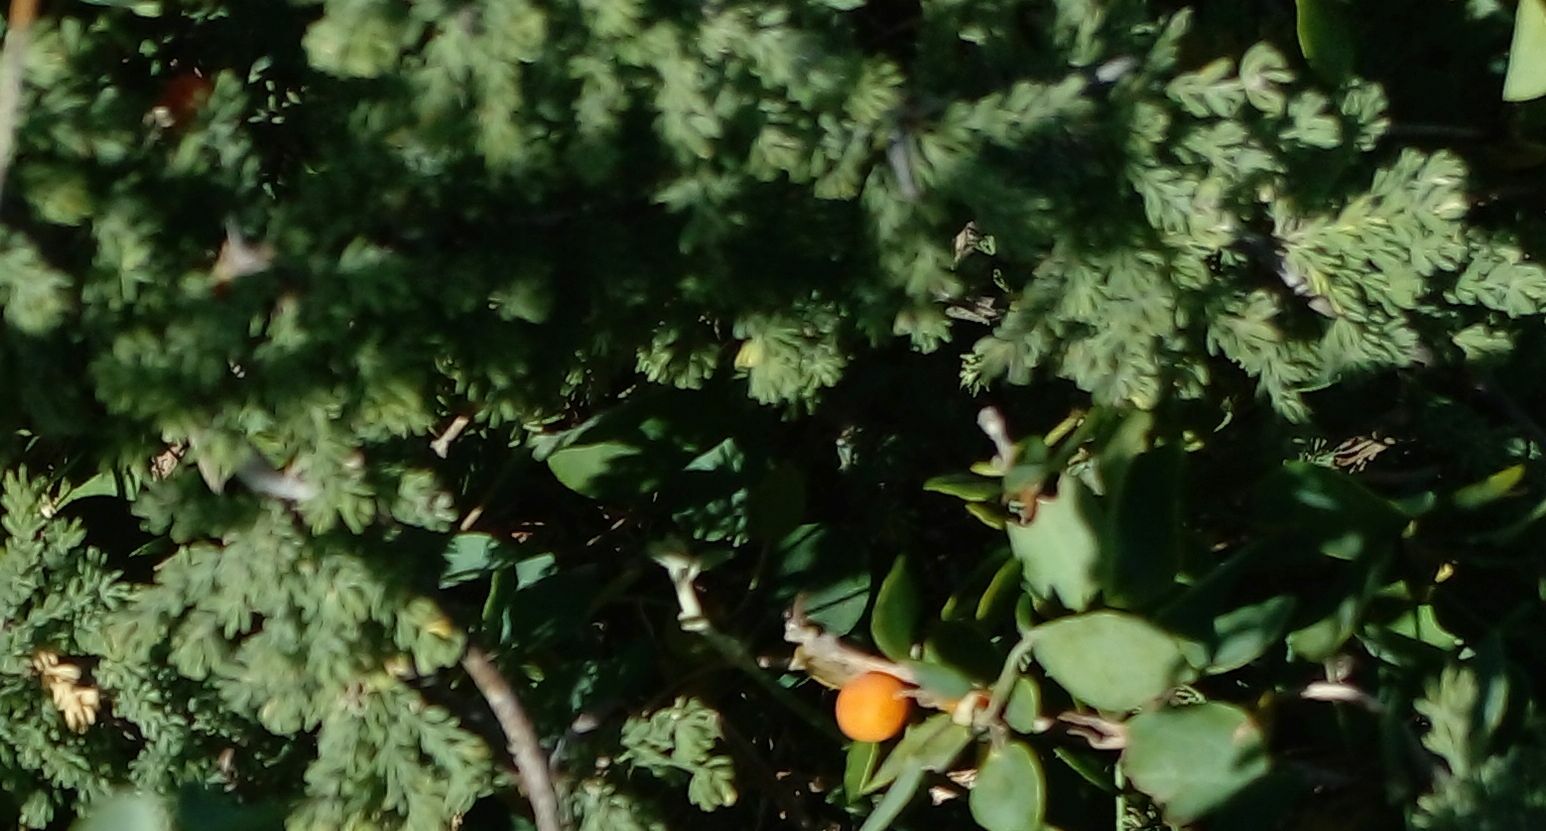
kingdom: Plantae
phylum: Tracheophyta
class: Liliopsida
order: Asparagales
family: Asparagaceae
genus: Asparagus
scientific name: Asparagus capensis
